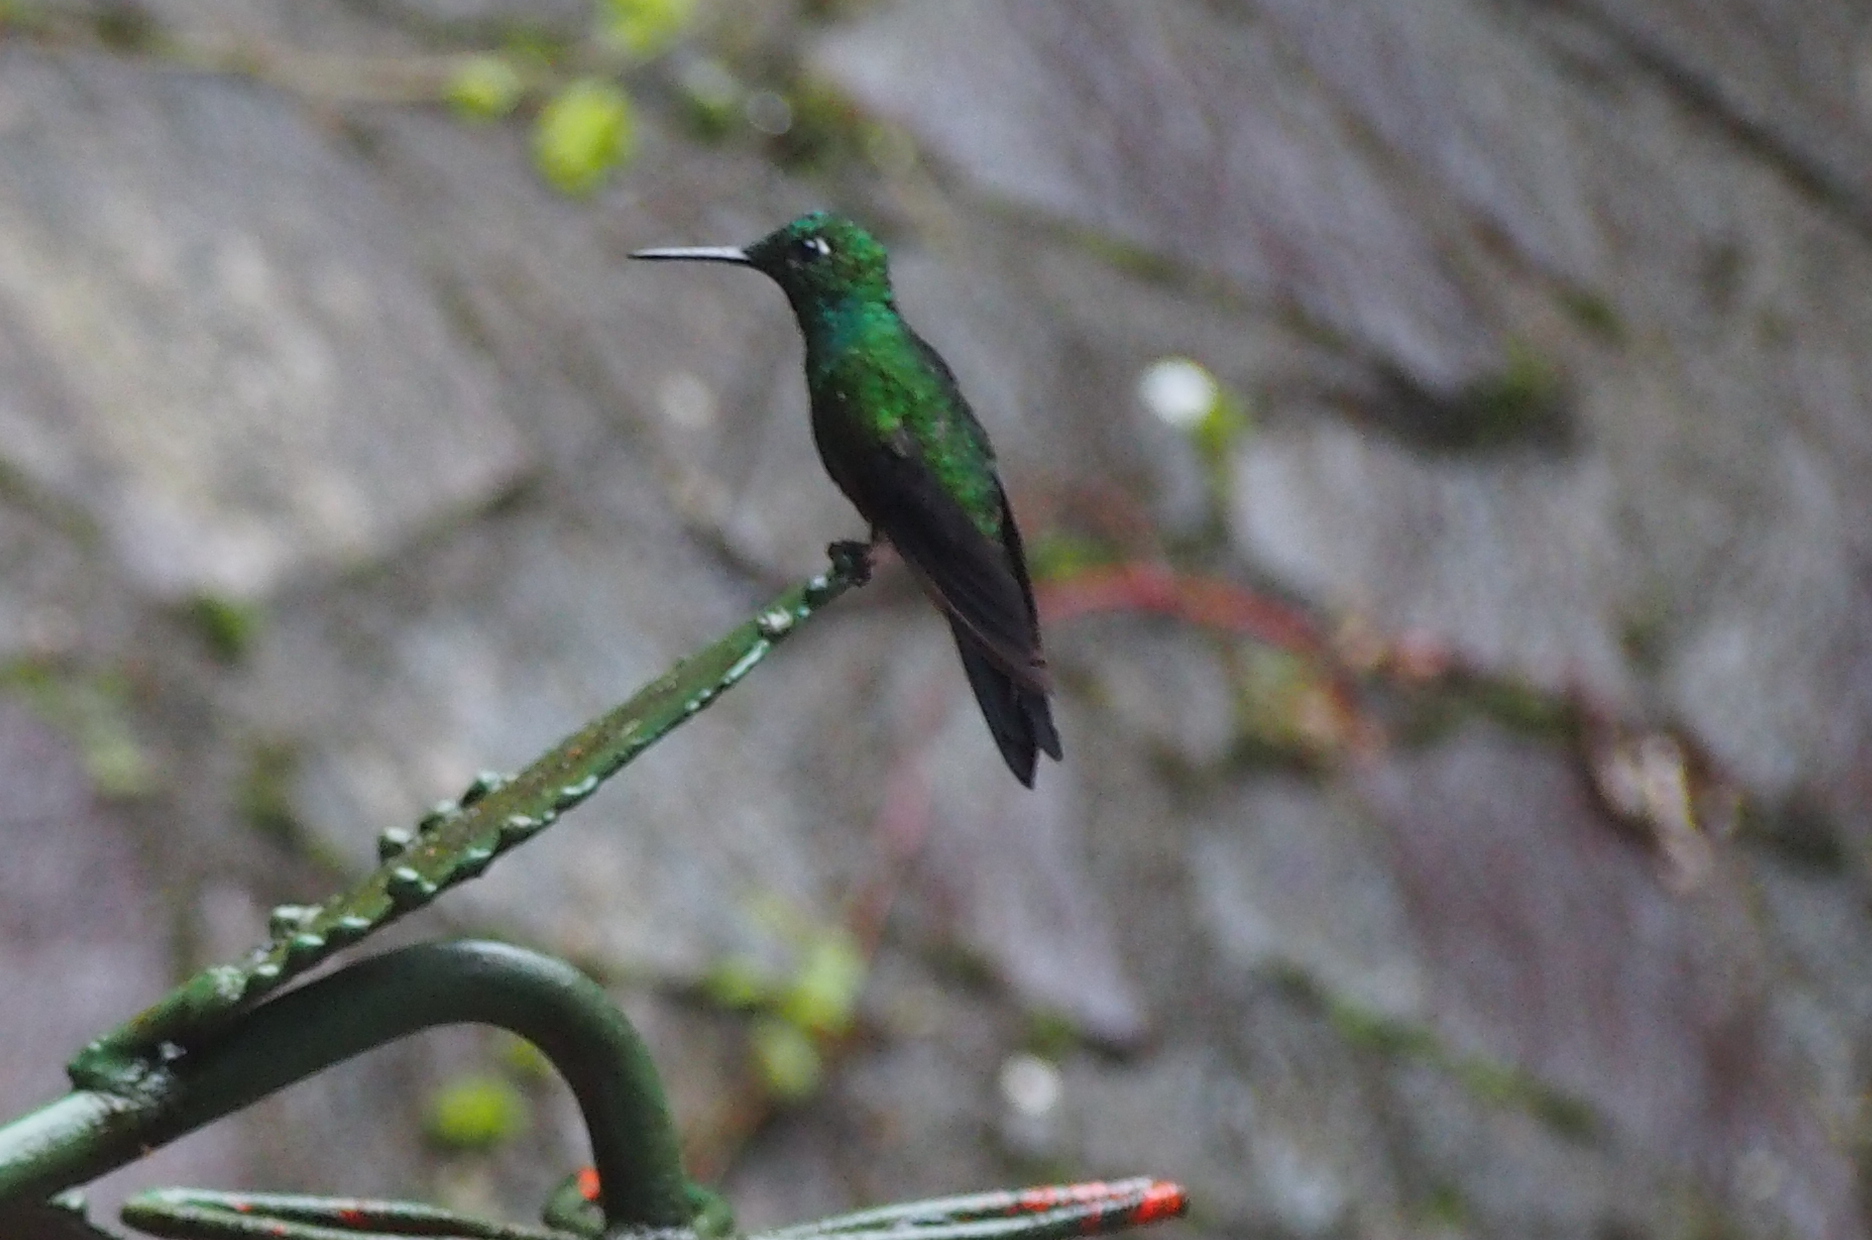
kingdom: Animalia
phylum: Chordata
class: Aves
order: Apodiformes
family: Trochilidae
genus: Heliodoxa
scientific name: Heliodoxa jacula
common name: Green-crowned brilliant
